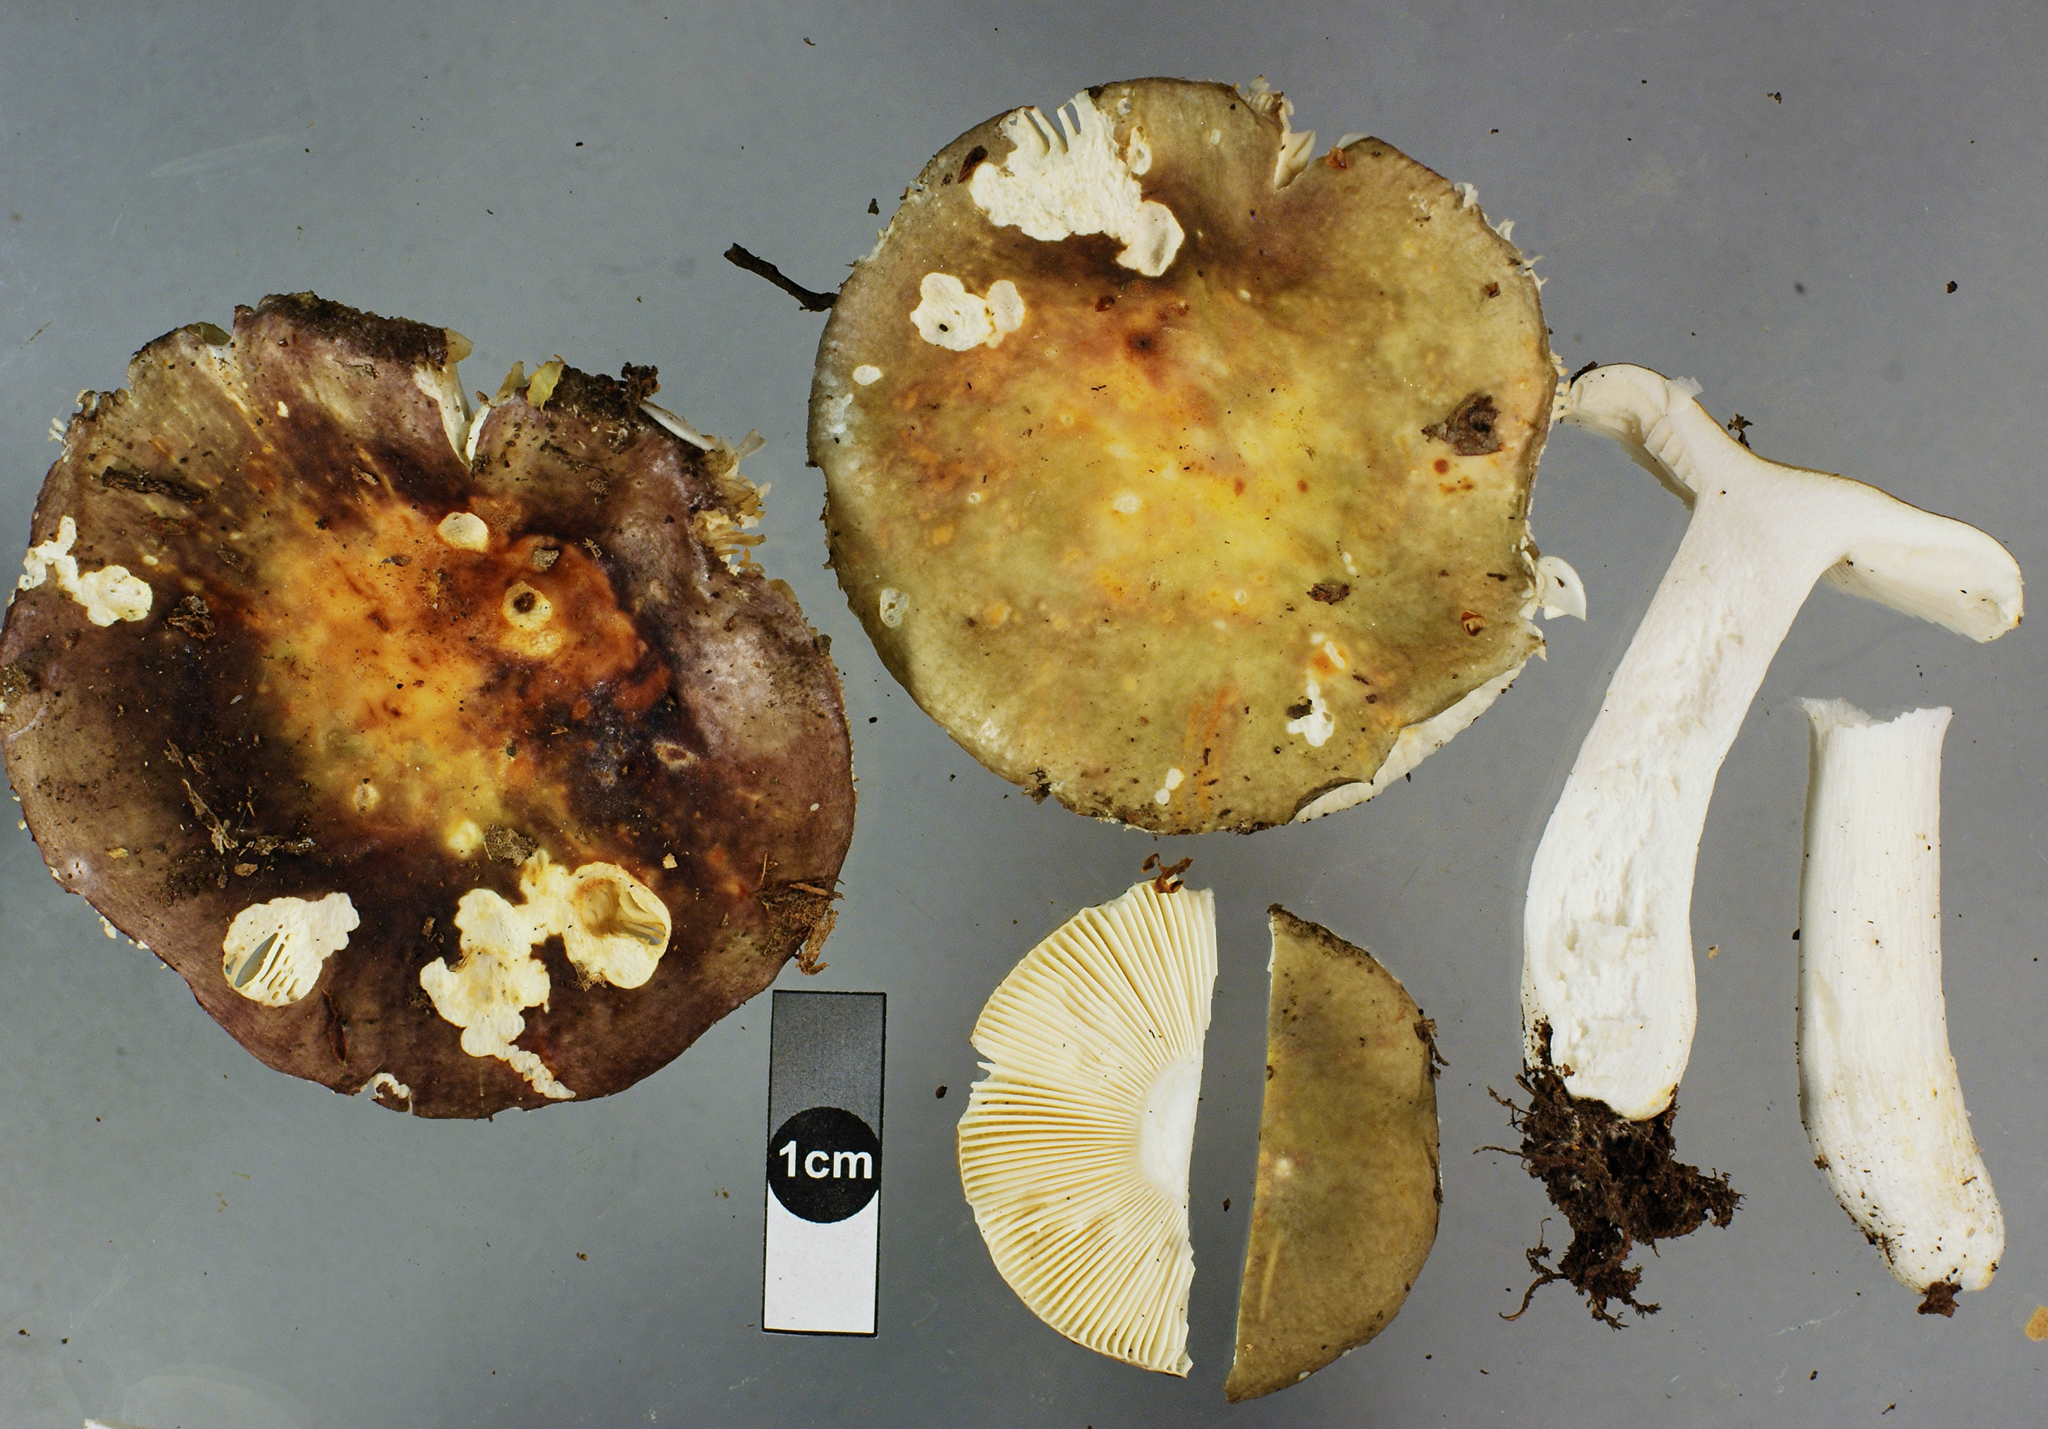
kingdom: Fungi
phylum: Basidiomycota
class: Agaricomycetes
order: Russulales
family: Russulaceae
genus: Russula
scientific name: Russula umerensis
